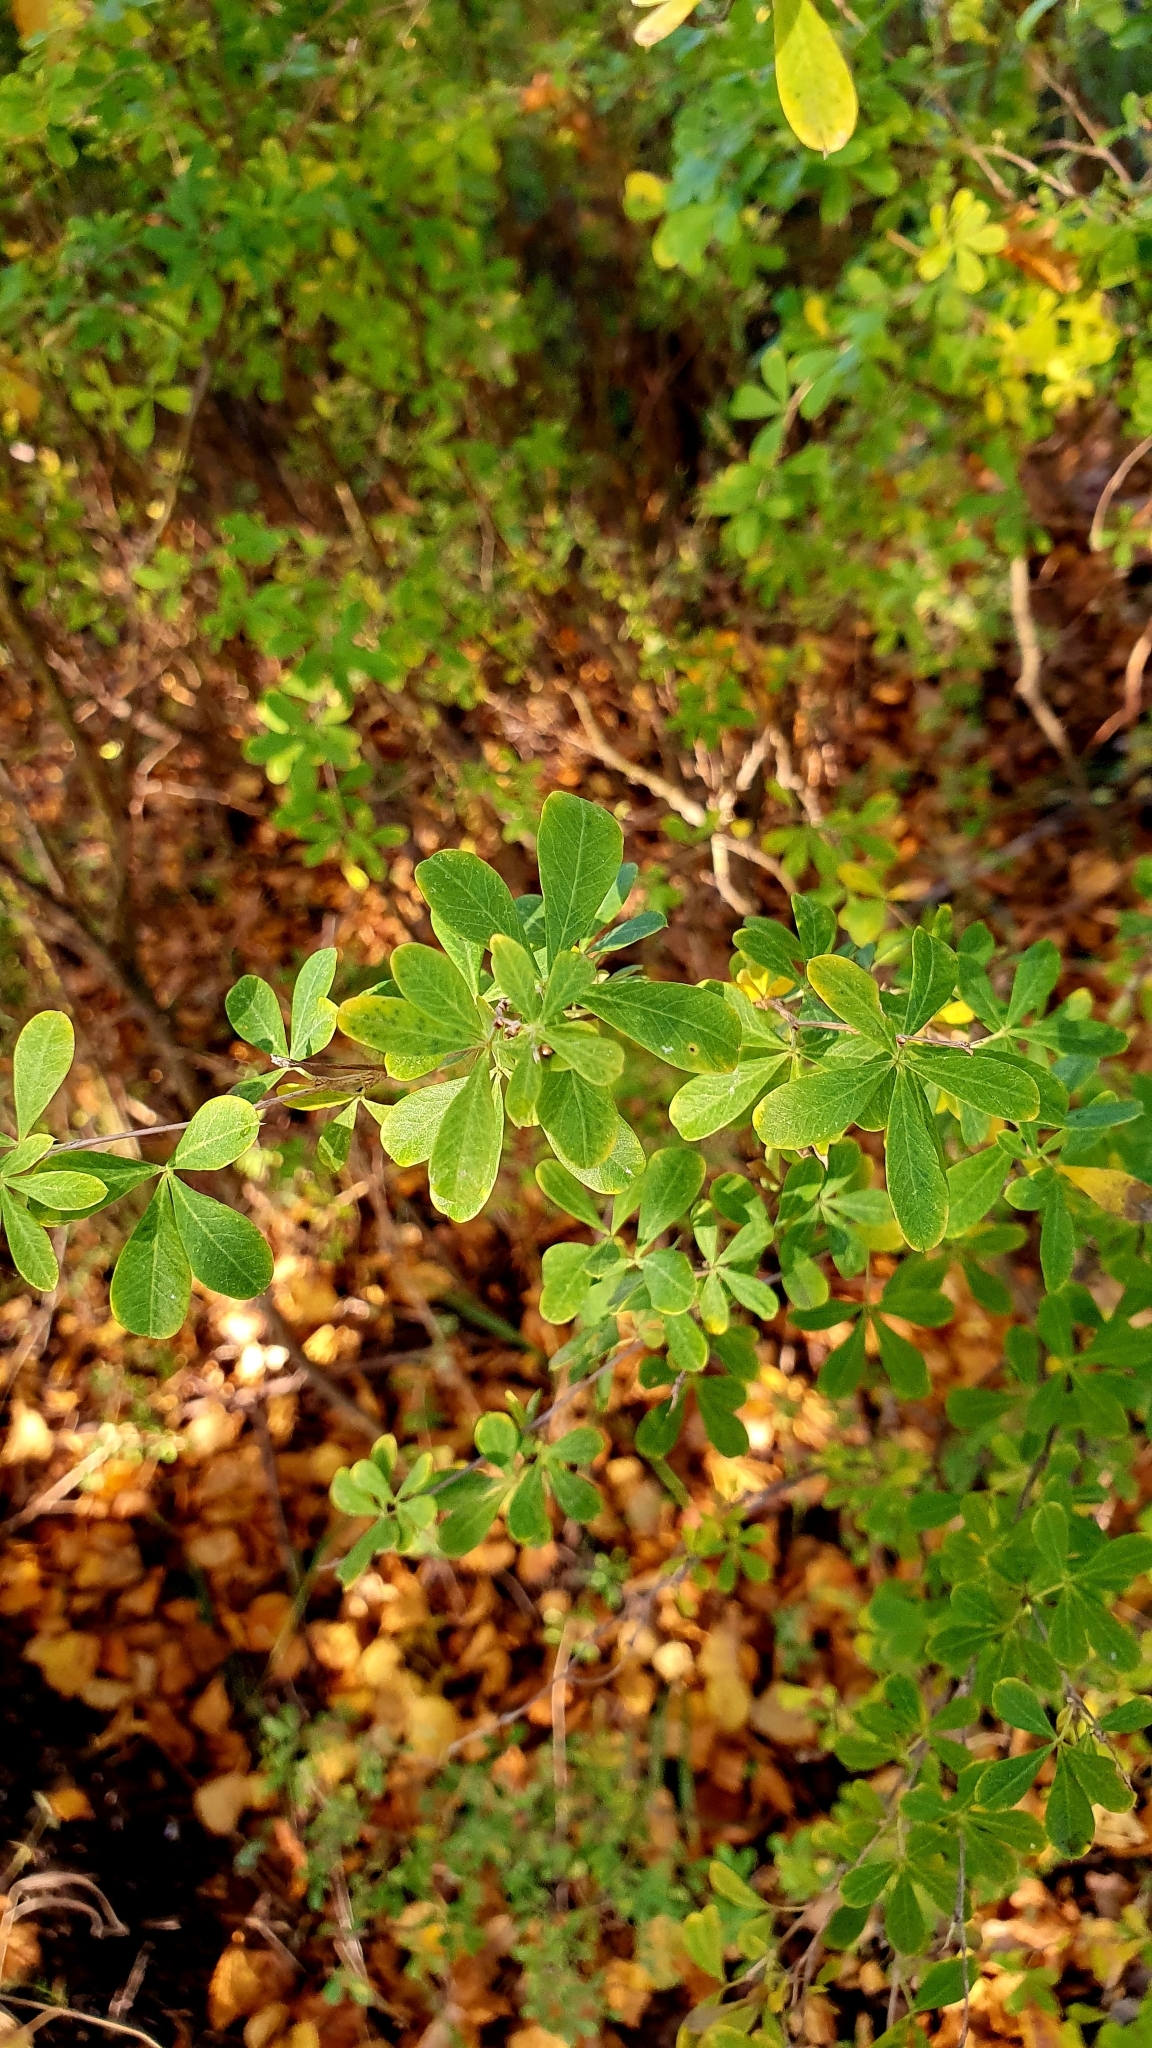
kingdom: Plantae
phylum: Tracheophyta
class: Magnoliopsida
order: Fabales
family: Fabaceae
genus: Caragana
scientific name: Caragana frutex
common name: Russian peashrub
